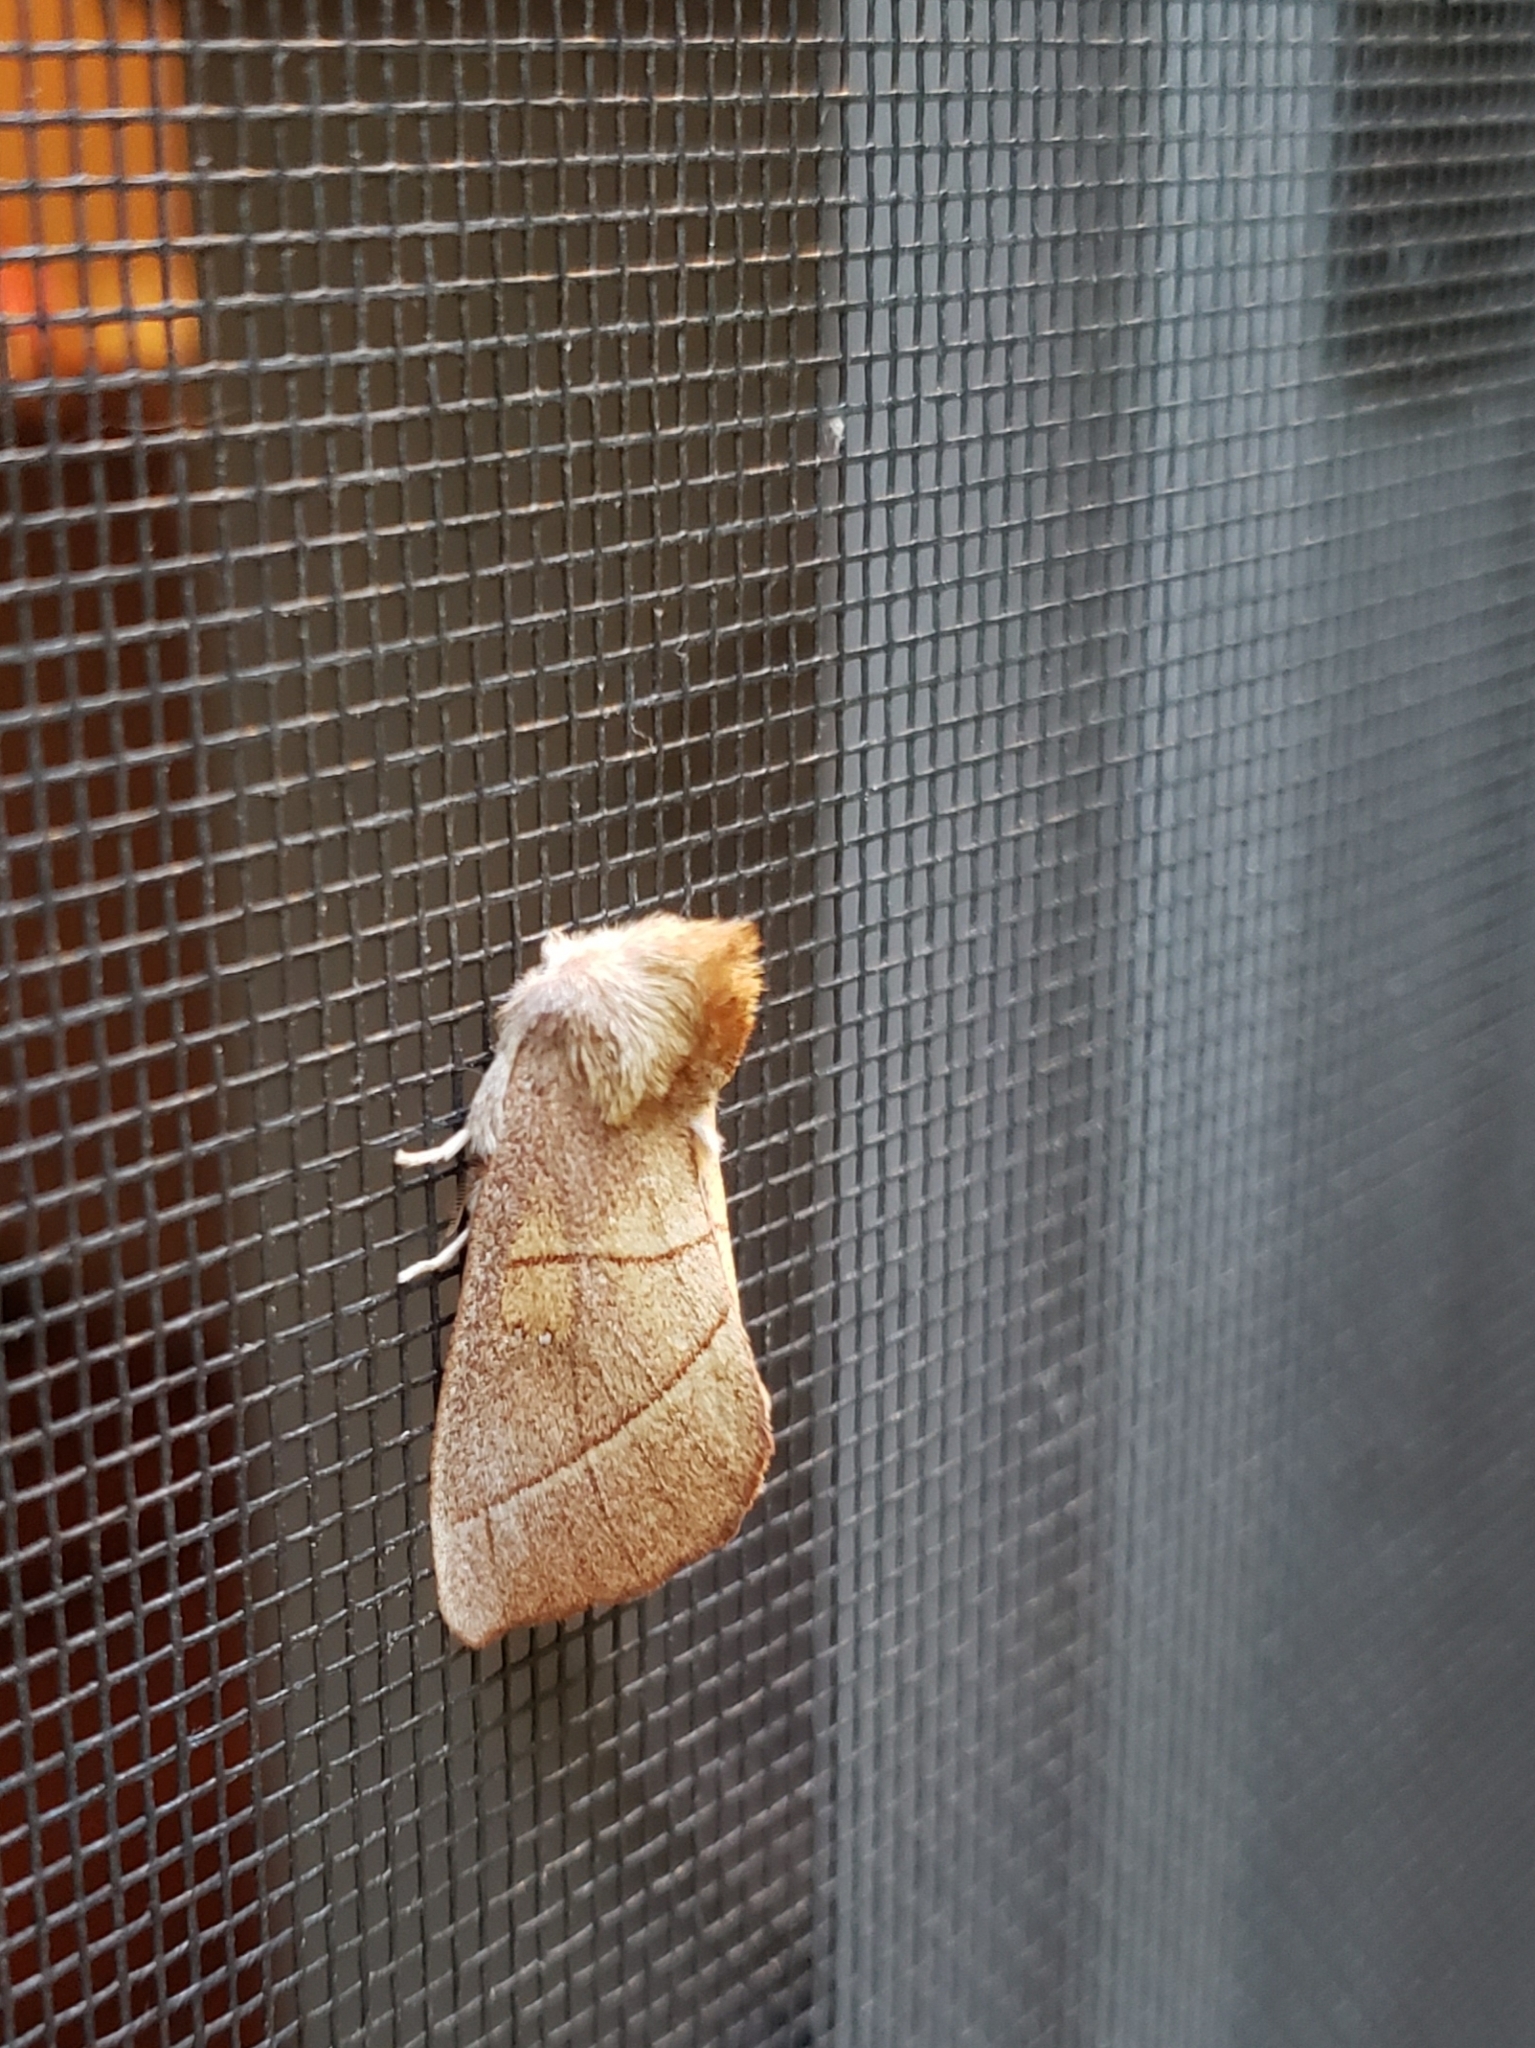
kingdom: Animalia
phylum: Arthropoda
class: Insecta
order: Lepidoptera
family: Notodontidae
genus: Nadata
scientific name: Nadata gibbosa
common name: White-dotted prominent
